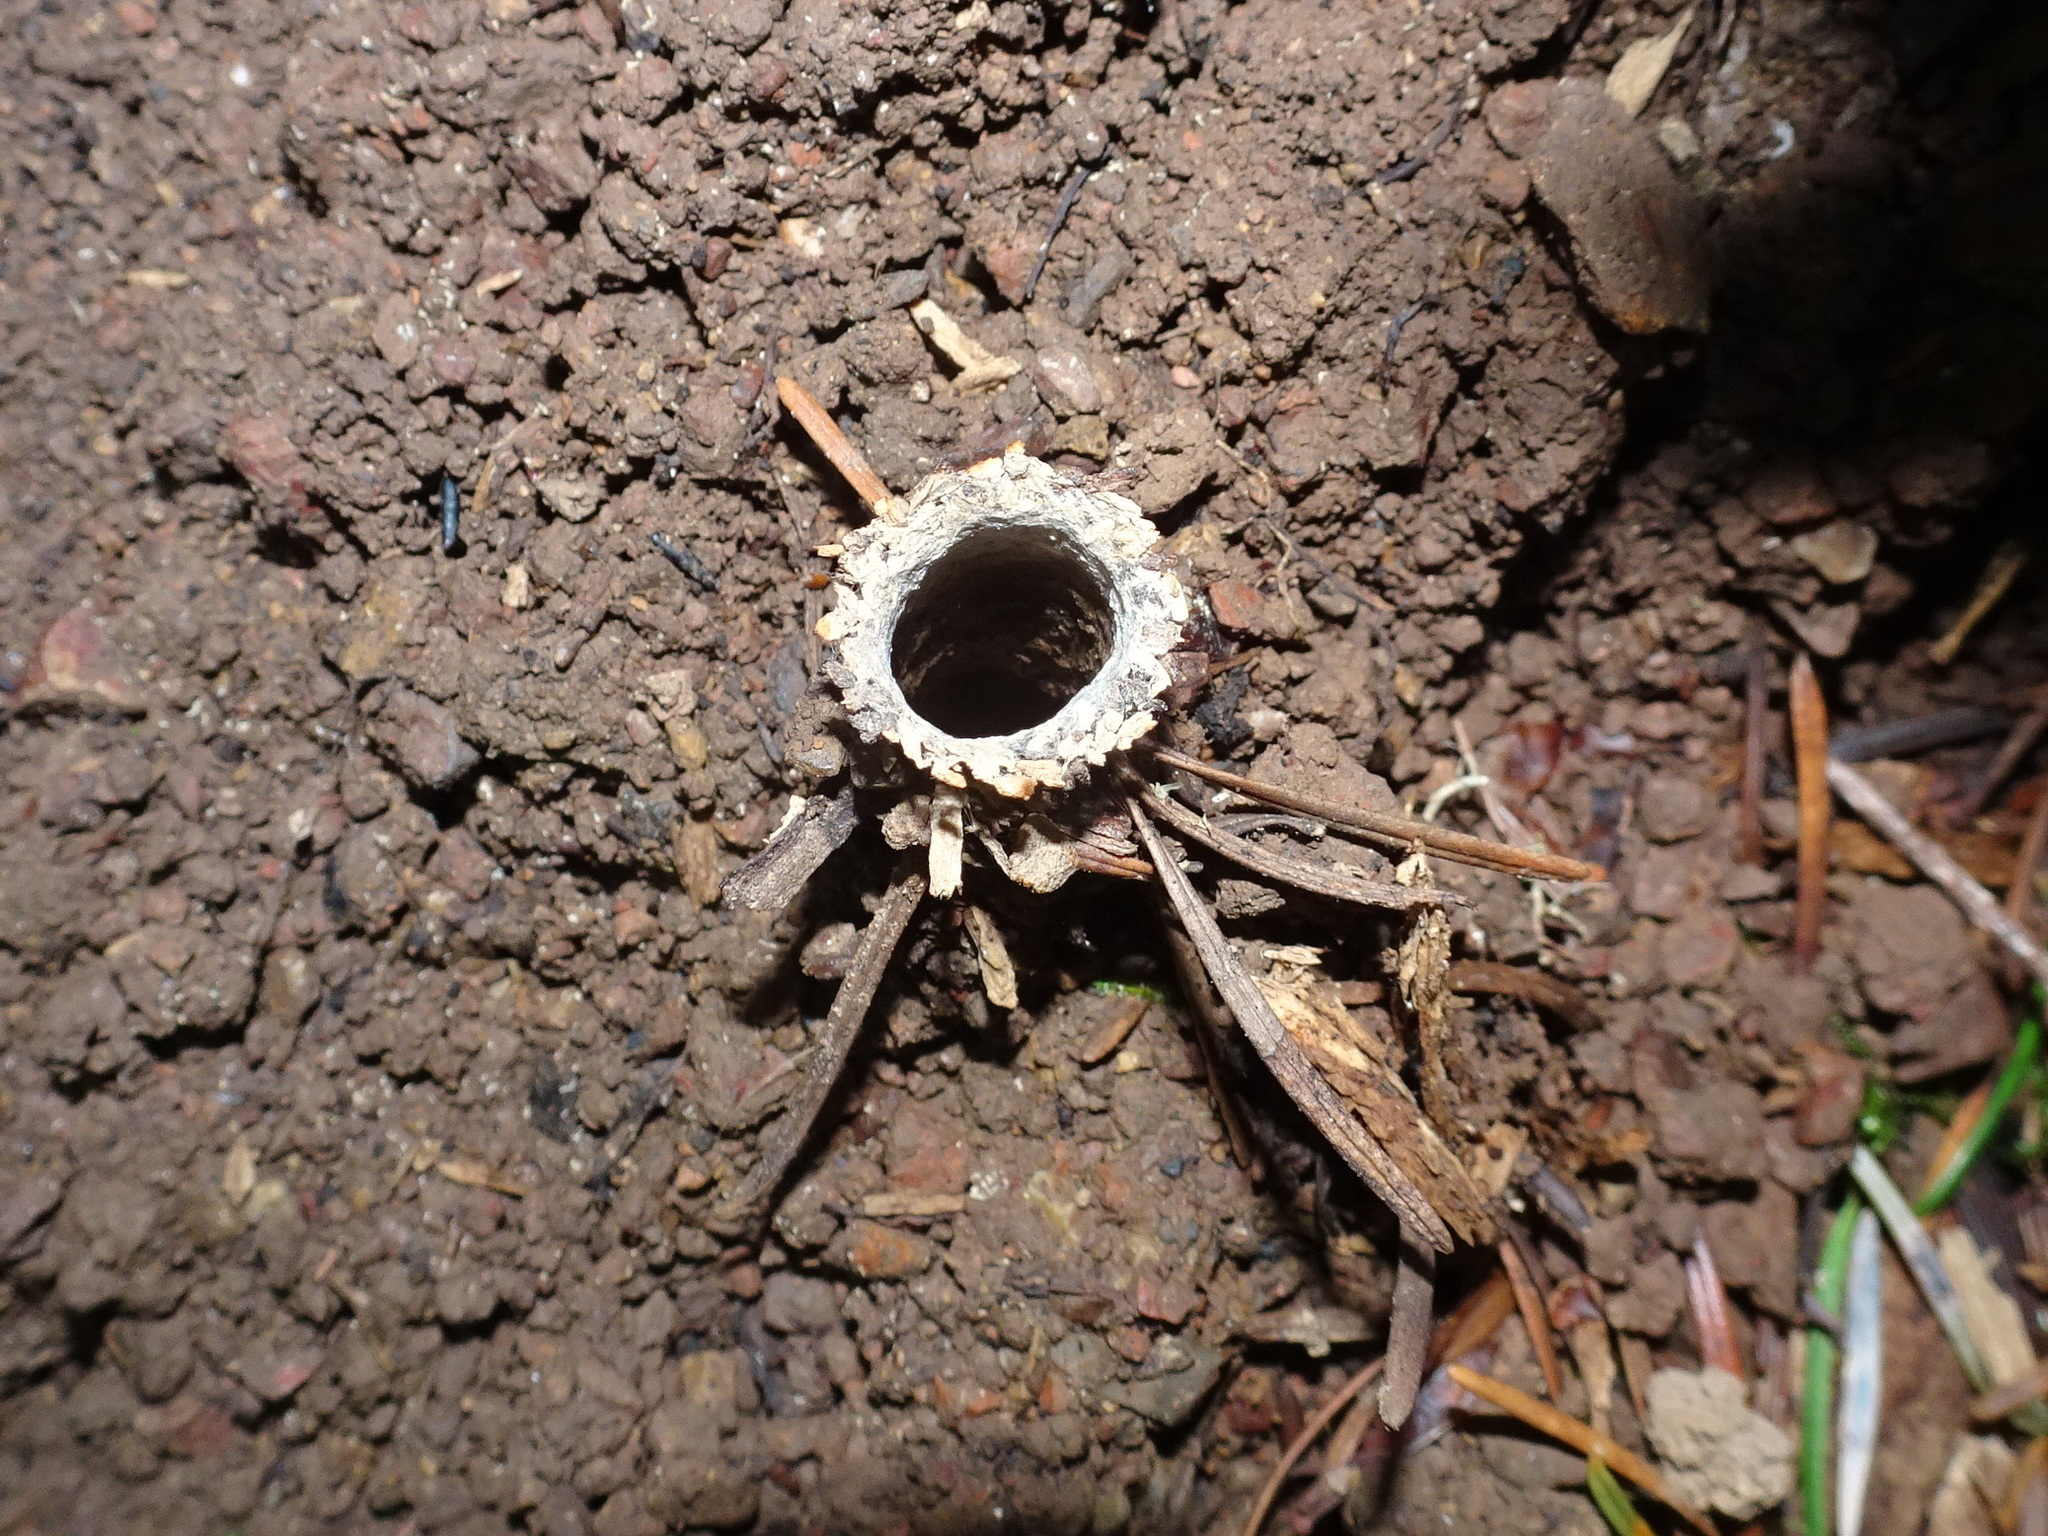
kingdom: Animalia
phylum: Arthropoda
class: Arachnida
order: Araneae
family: Antrodiaetidae
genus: Atypoides
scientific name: Atypoides riversi
